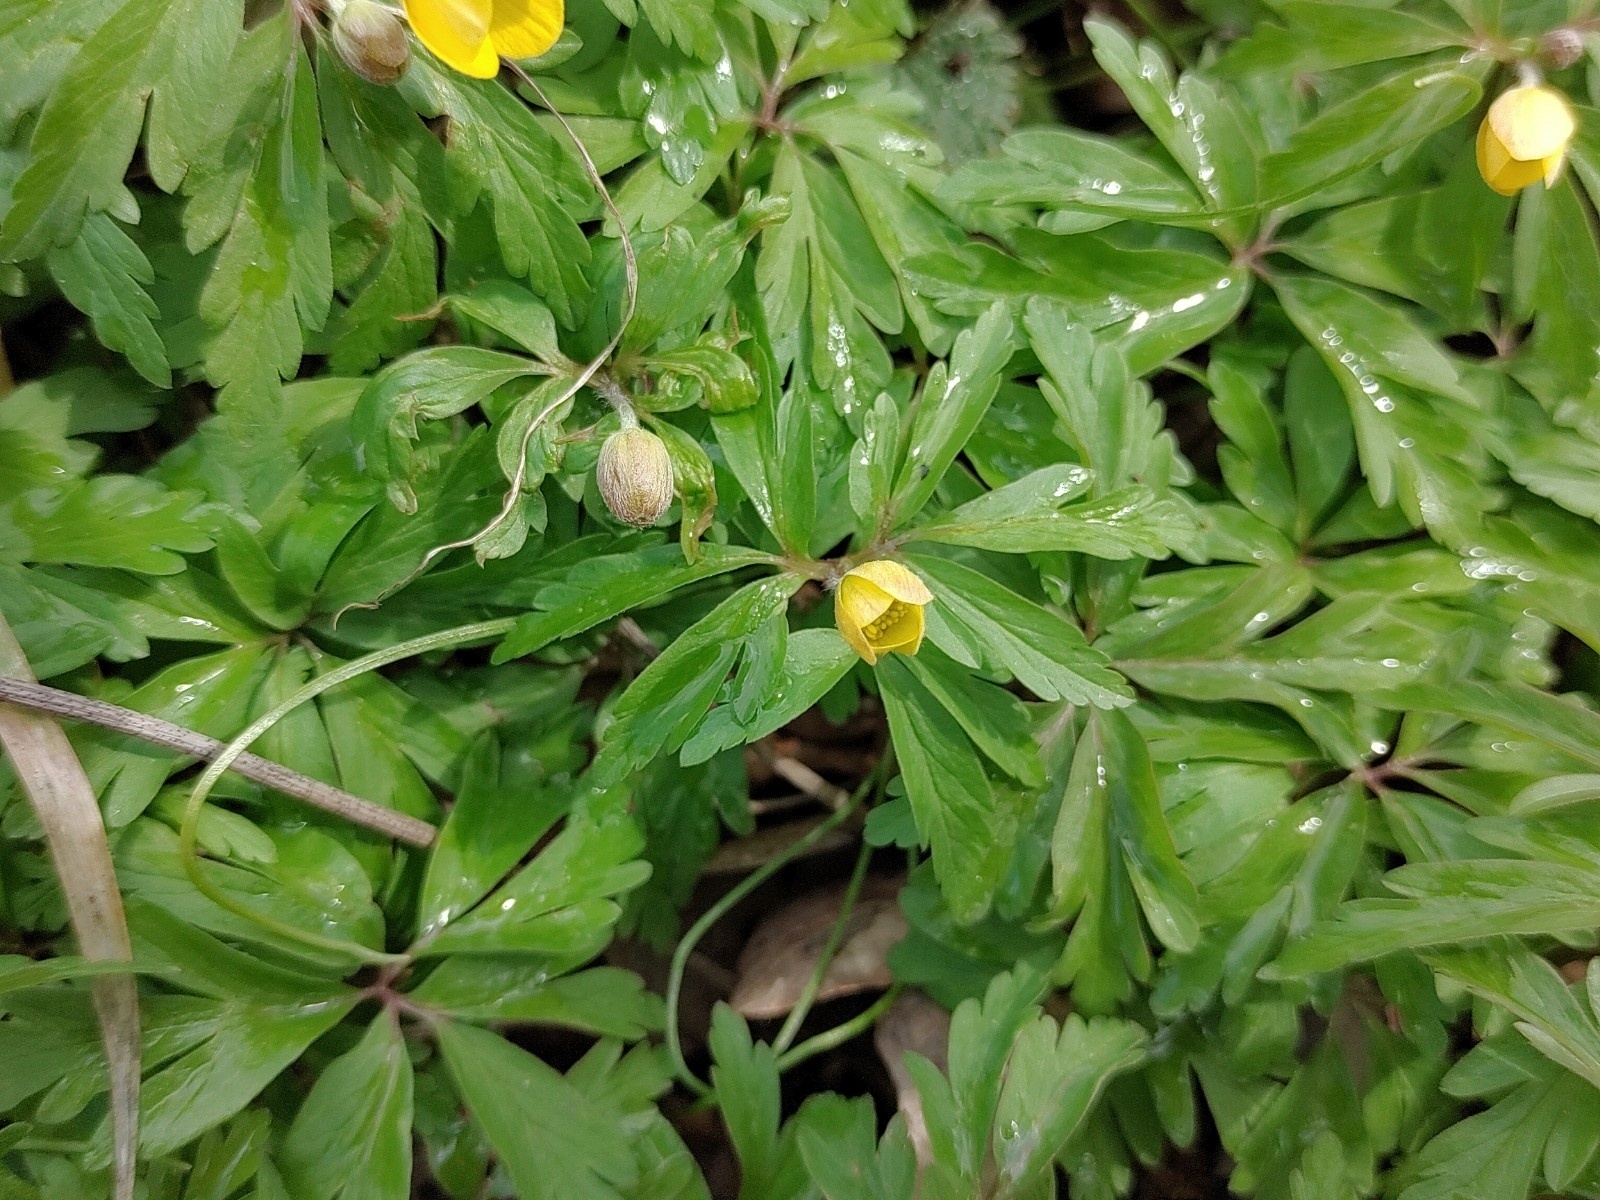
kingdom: Plantae
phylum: Tracheophyta
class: Magnoliopsida
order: Ranunculales
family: Ranunculaceae
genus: Anemone
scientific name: Anemone ranunculoides
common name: Yellow anemone
